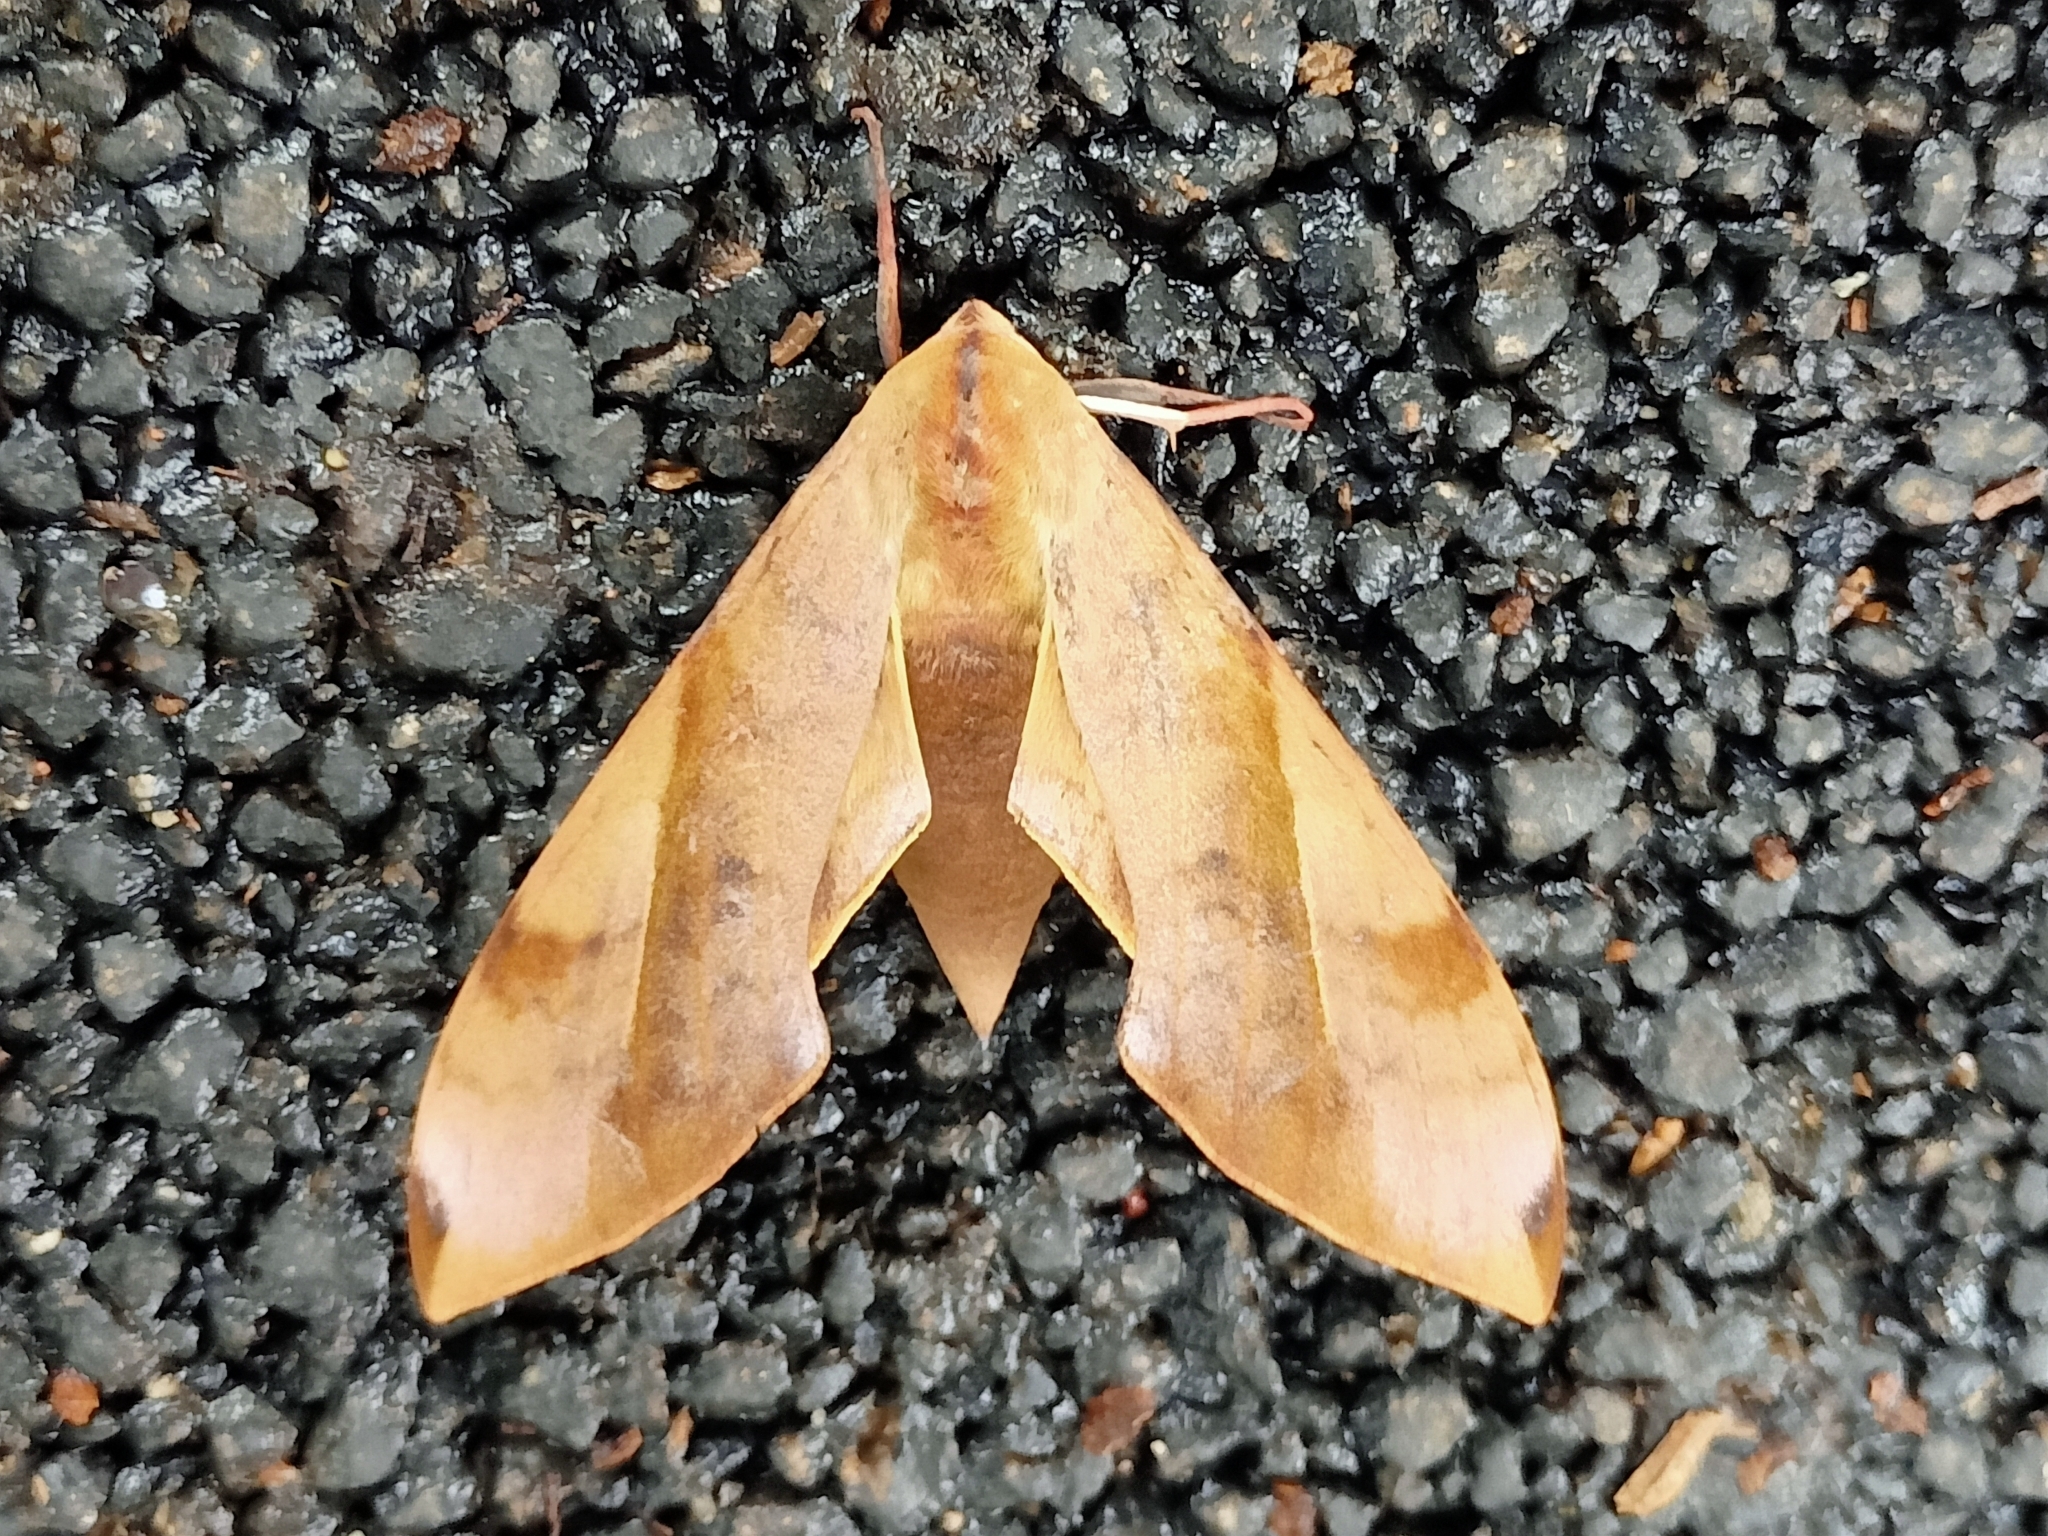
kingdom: Animalia
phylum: Arthropoda
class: Insecta
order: Lepidoptera
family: Sphingidae
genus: Clanis
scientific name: Clanis bilineata
